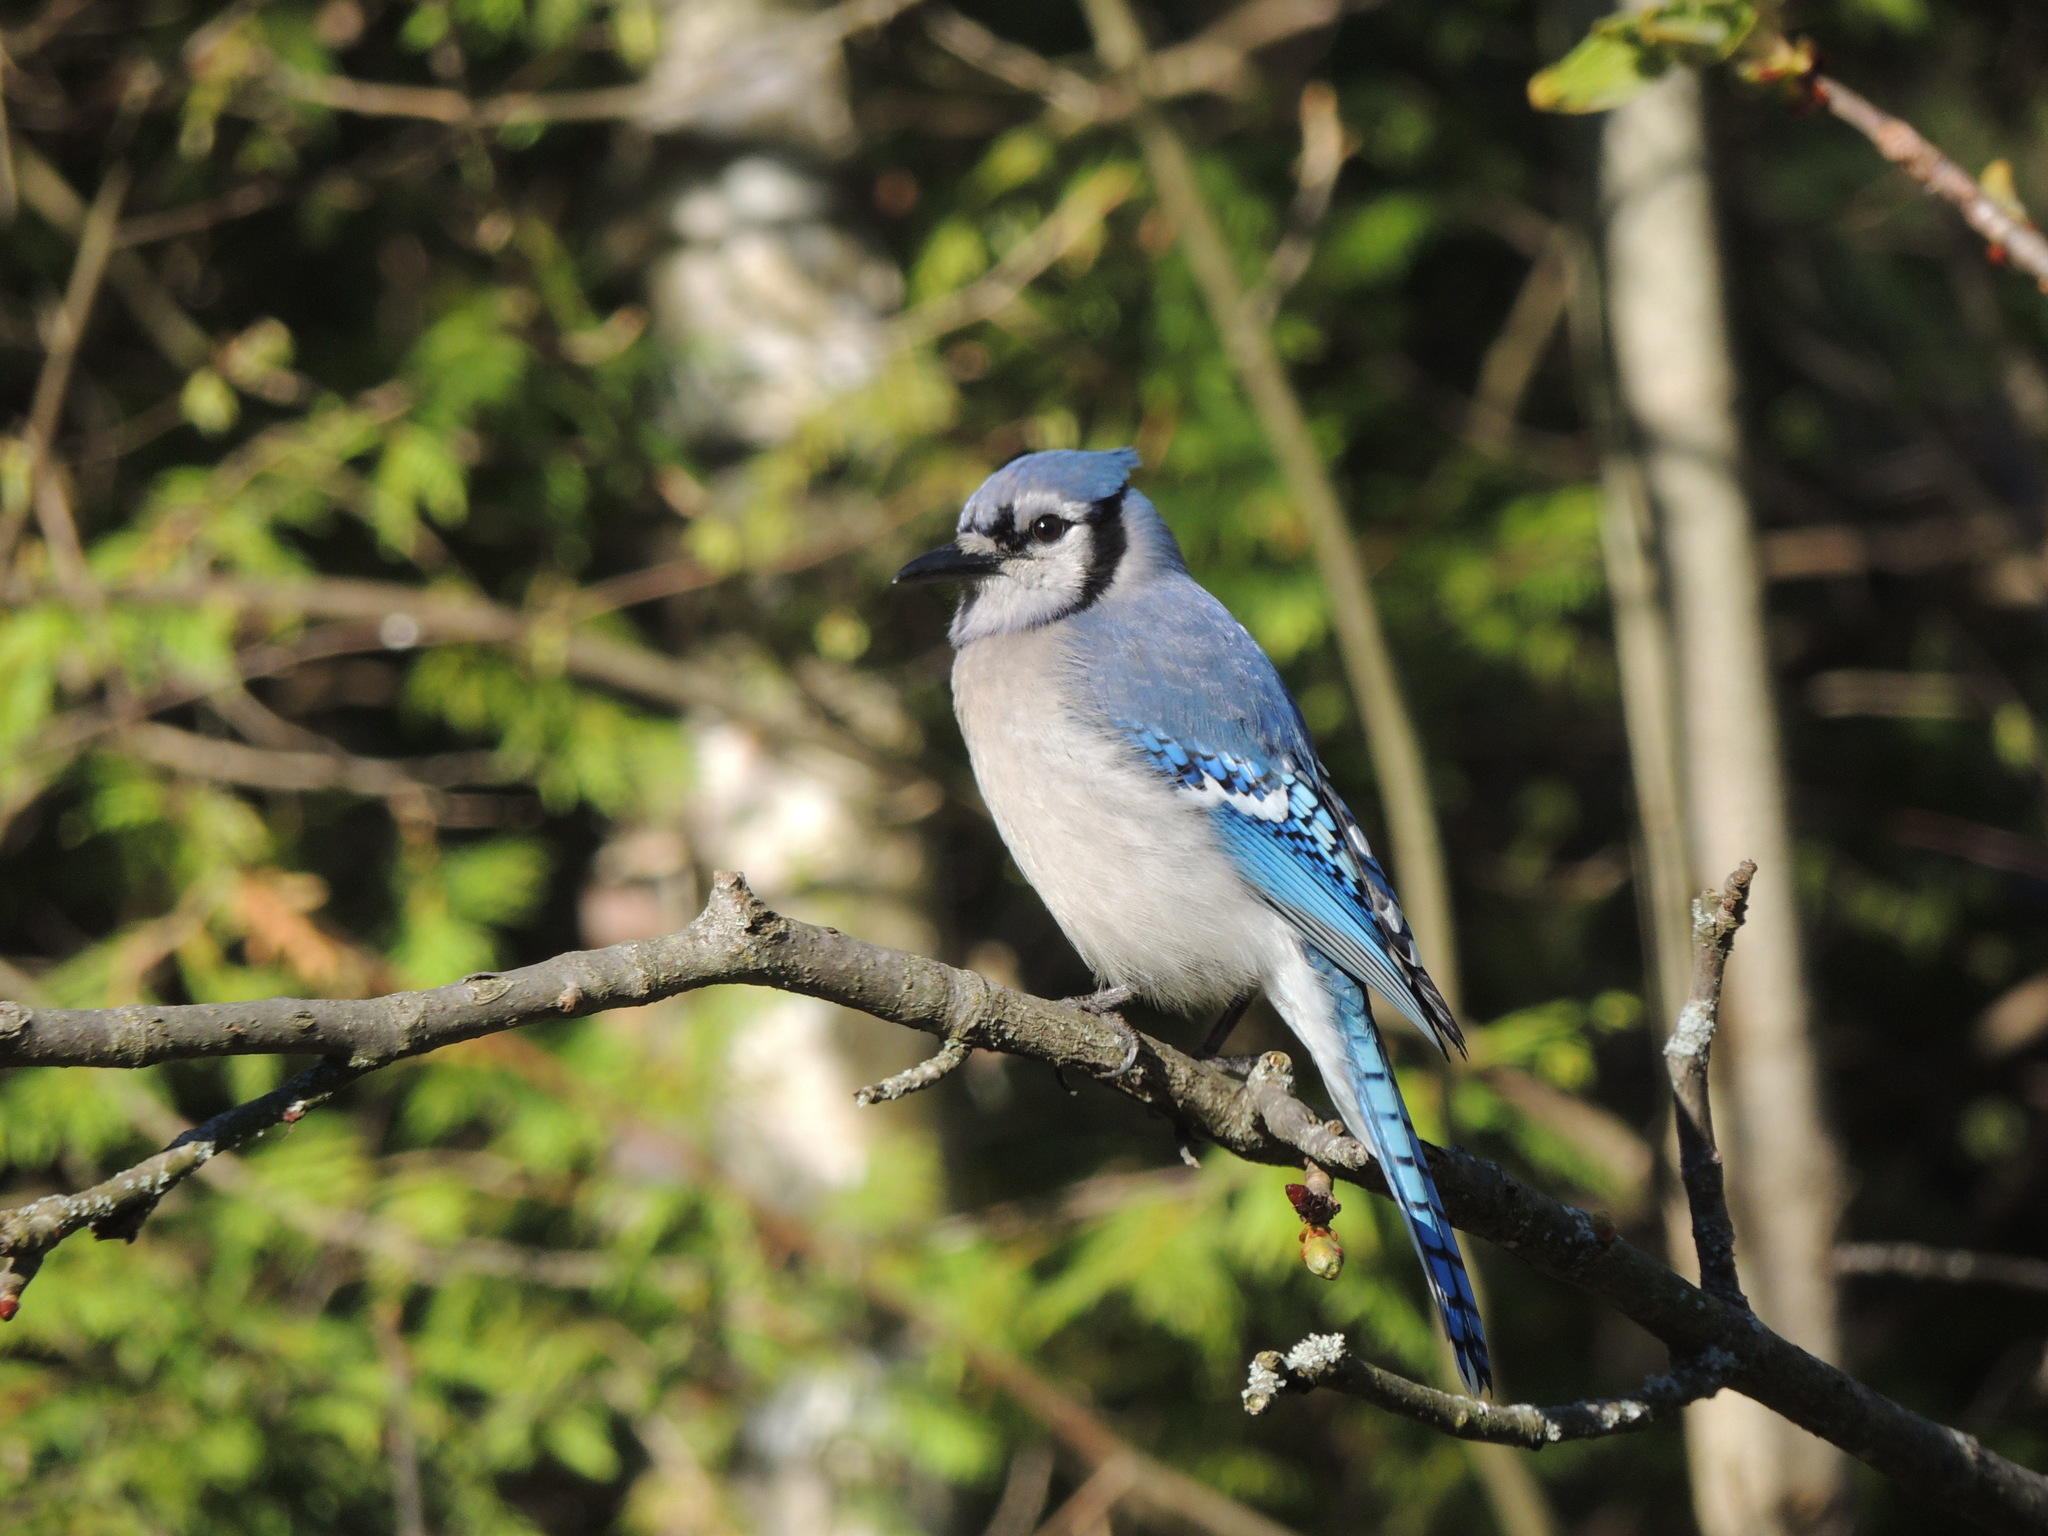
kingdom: Animalia
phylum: Chordata
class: Aves
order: Passeriformes
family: Corvidae
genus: Cyanocitta
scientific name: Cyanocitta cristata
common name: Blue jay
